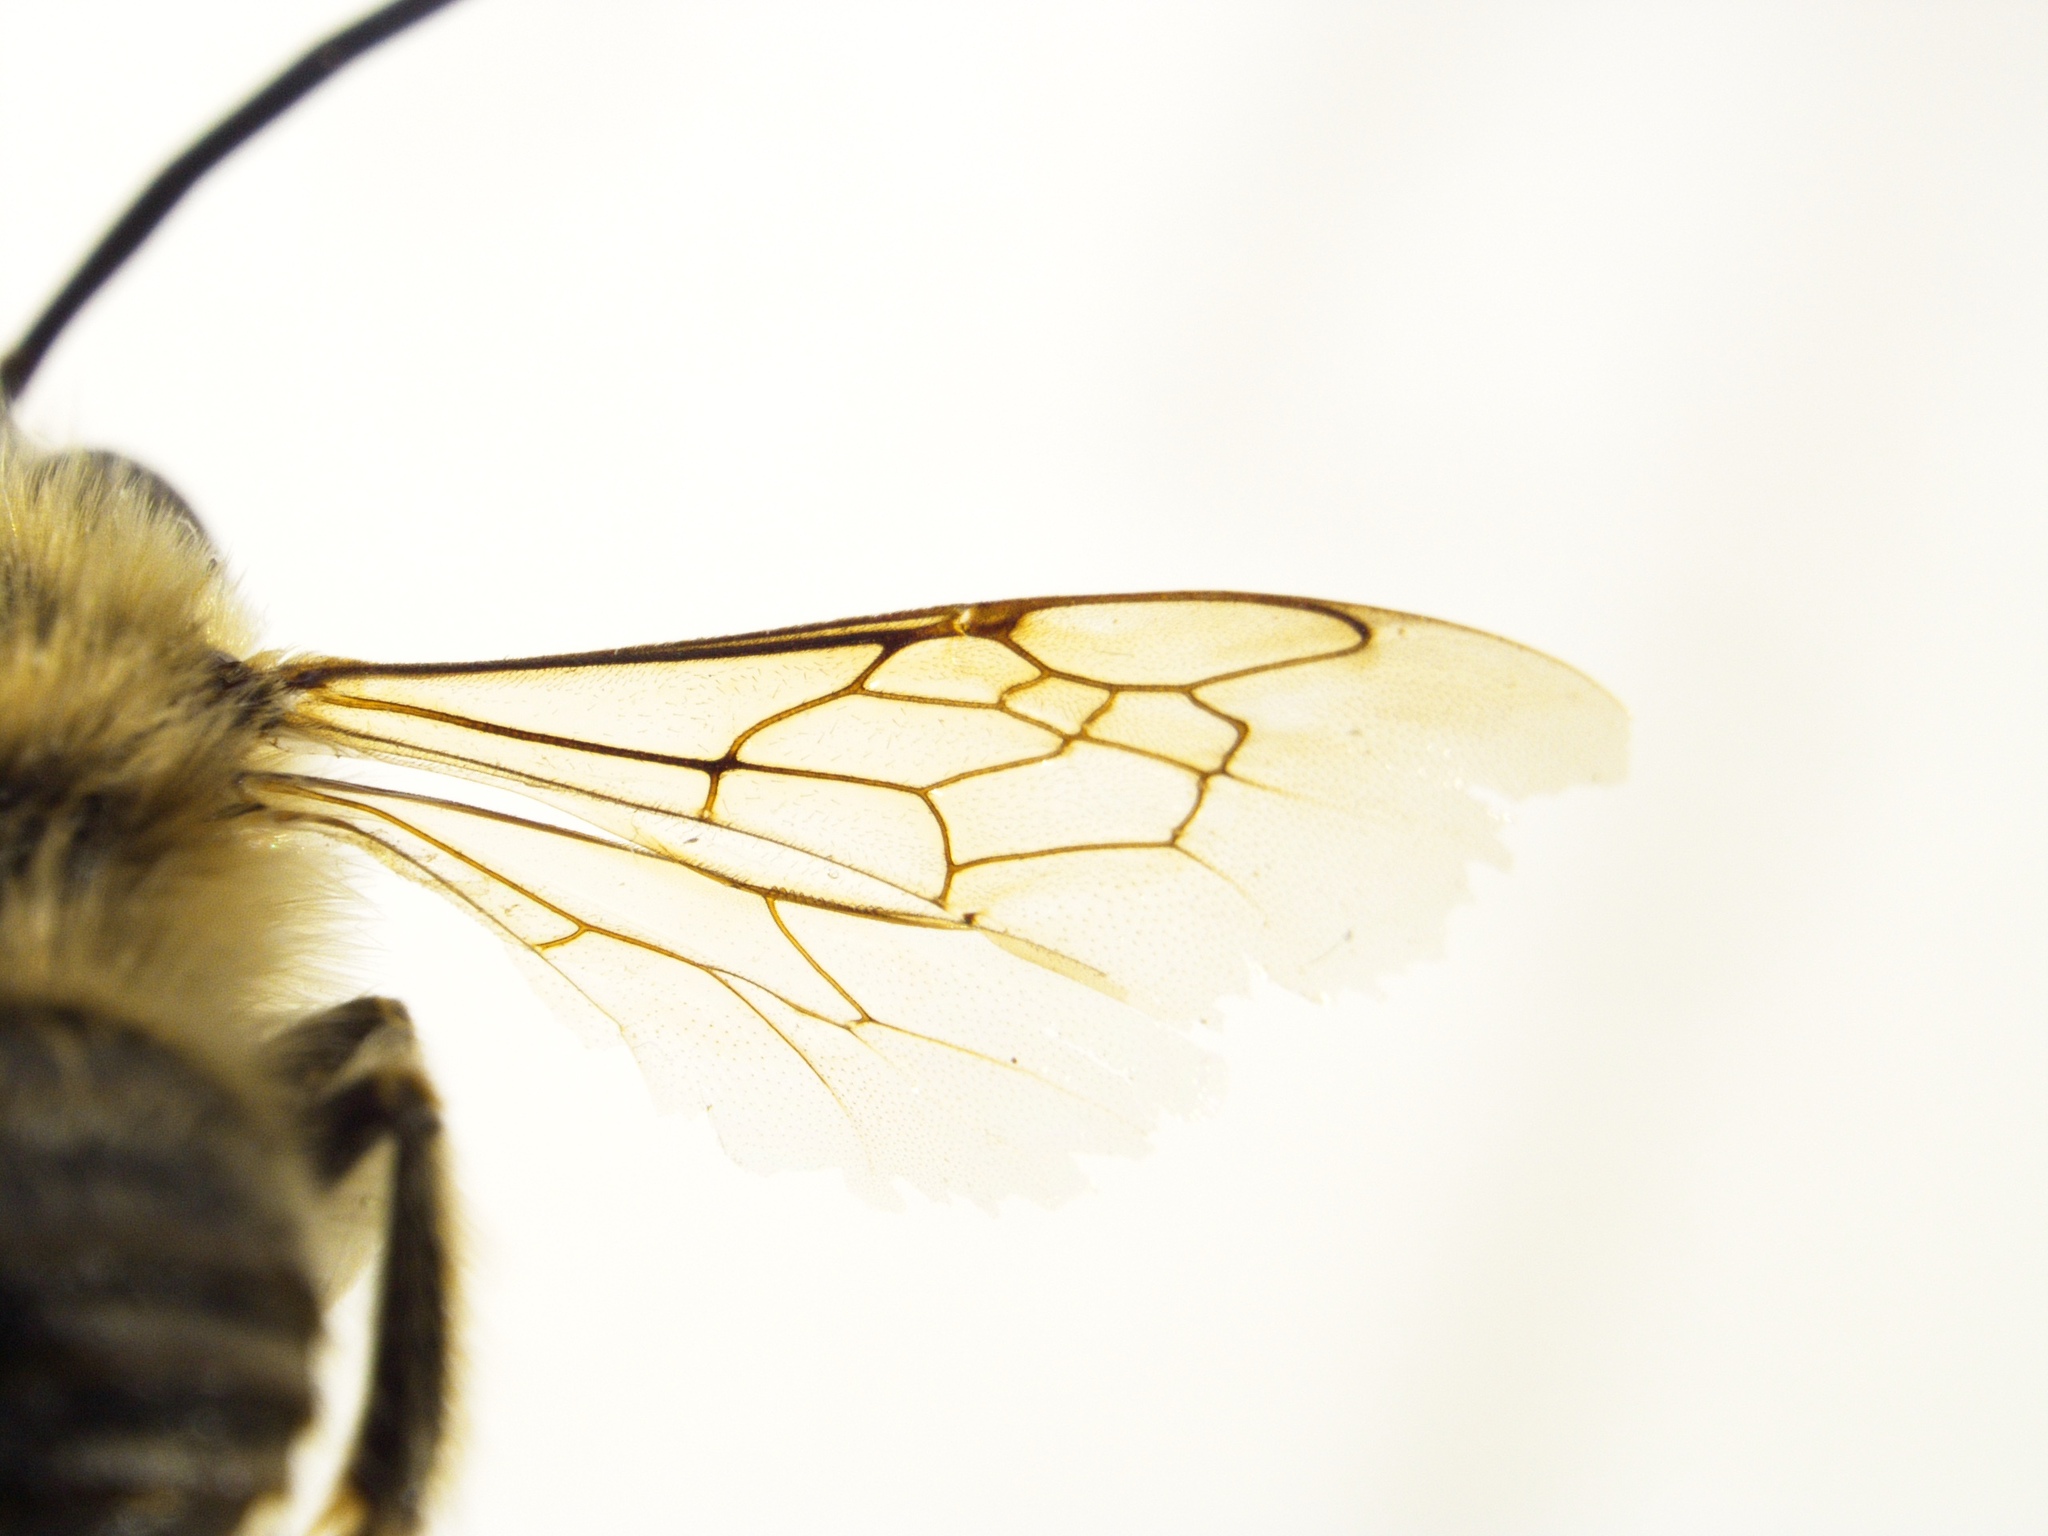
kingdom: Animalia
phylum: Arthropoda
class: Insecta
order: Hymenoptera
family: Apidae
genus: Eucera
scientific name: Eucera nipponensis
